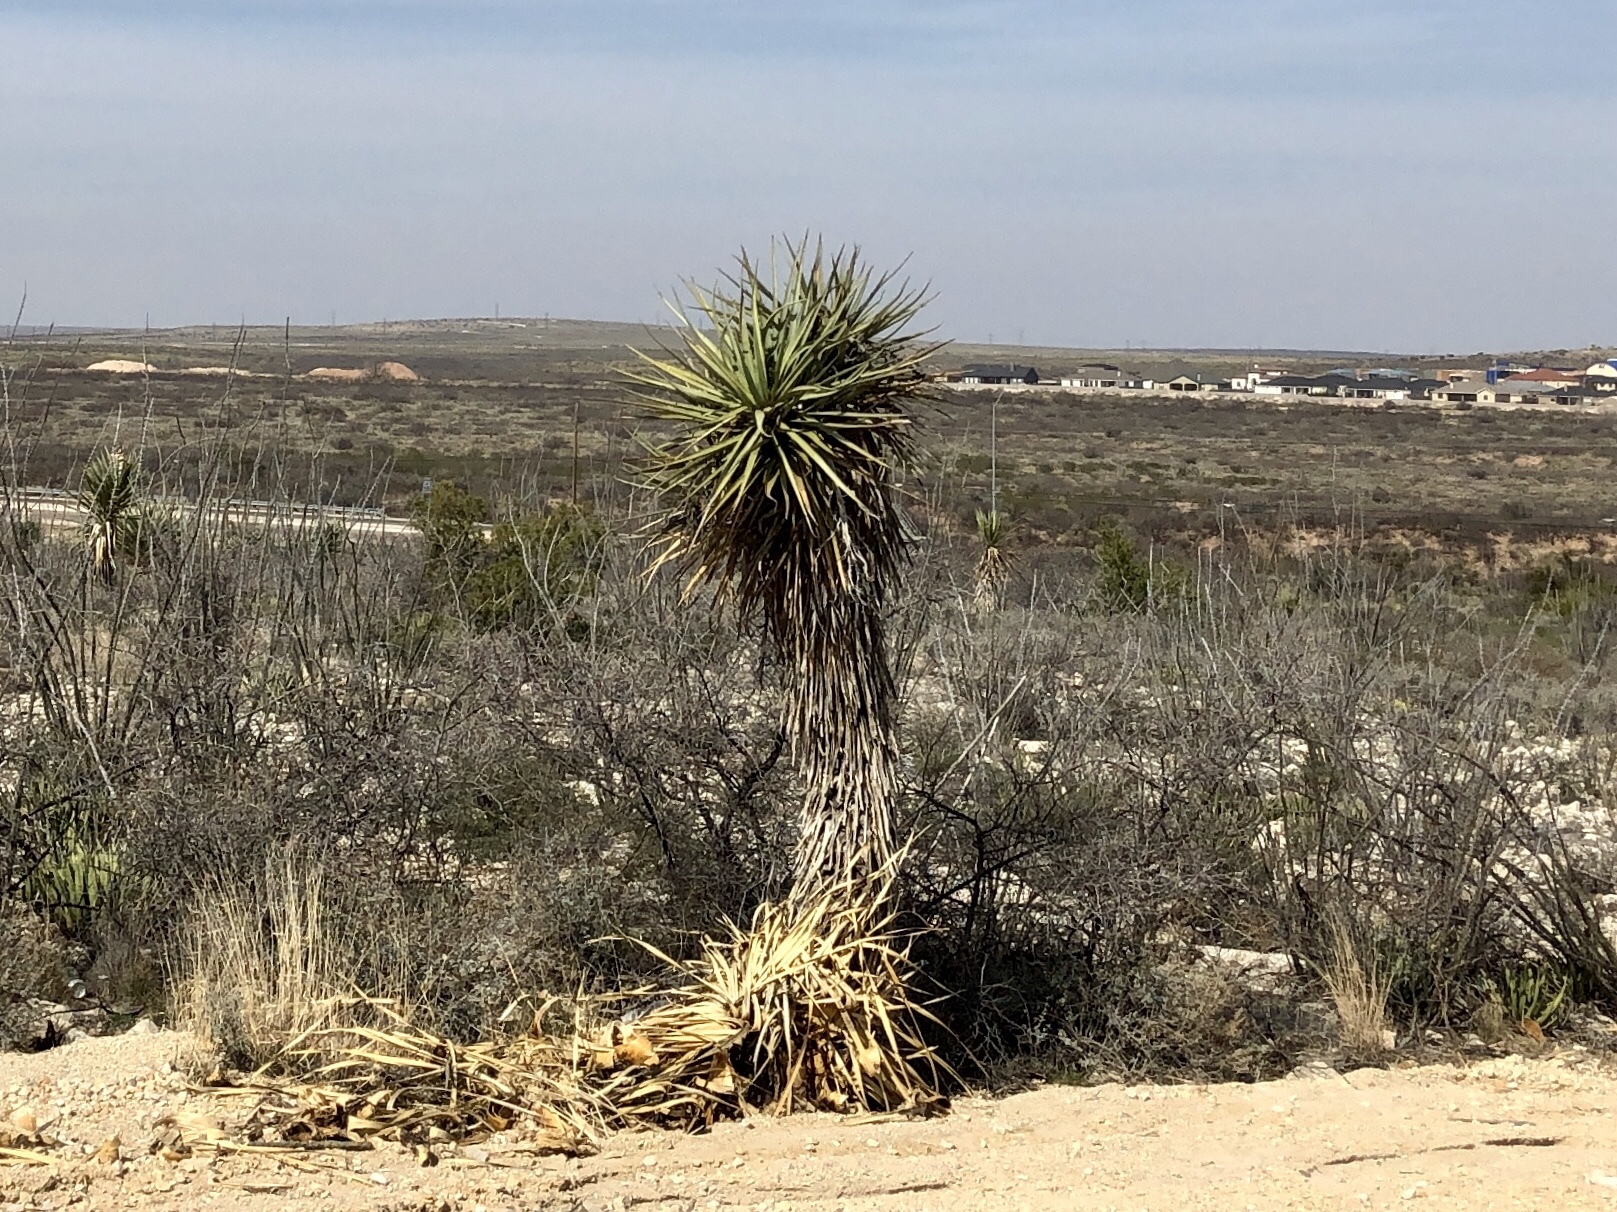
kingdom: Plantae
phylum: Tracheophyta
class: Liliopsida
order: Asparagales
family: Asparagaceae
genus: Yucca
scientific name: Yucca treculiana
